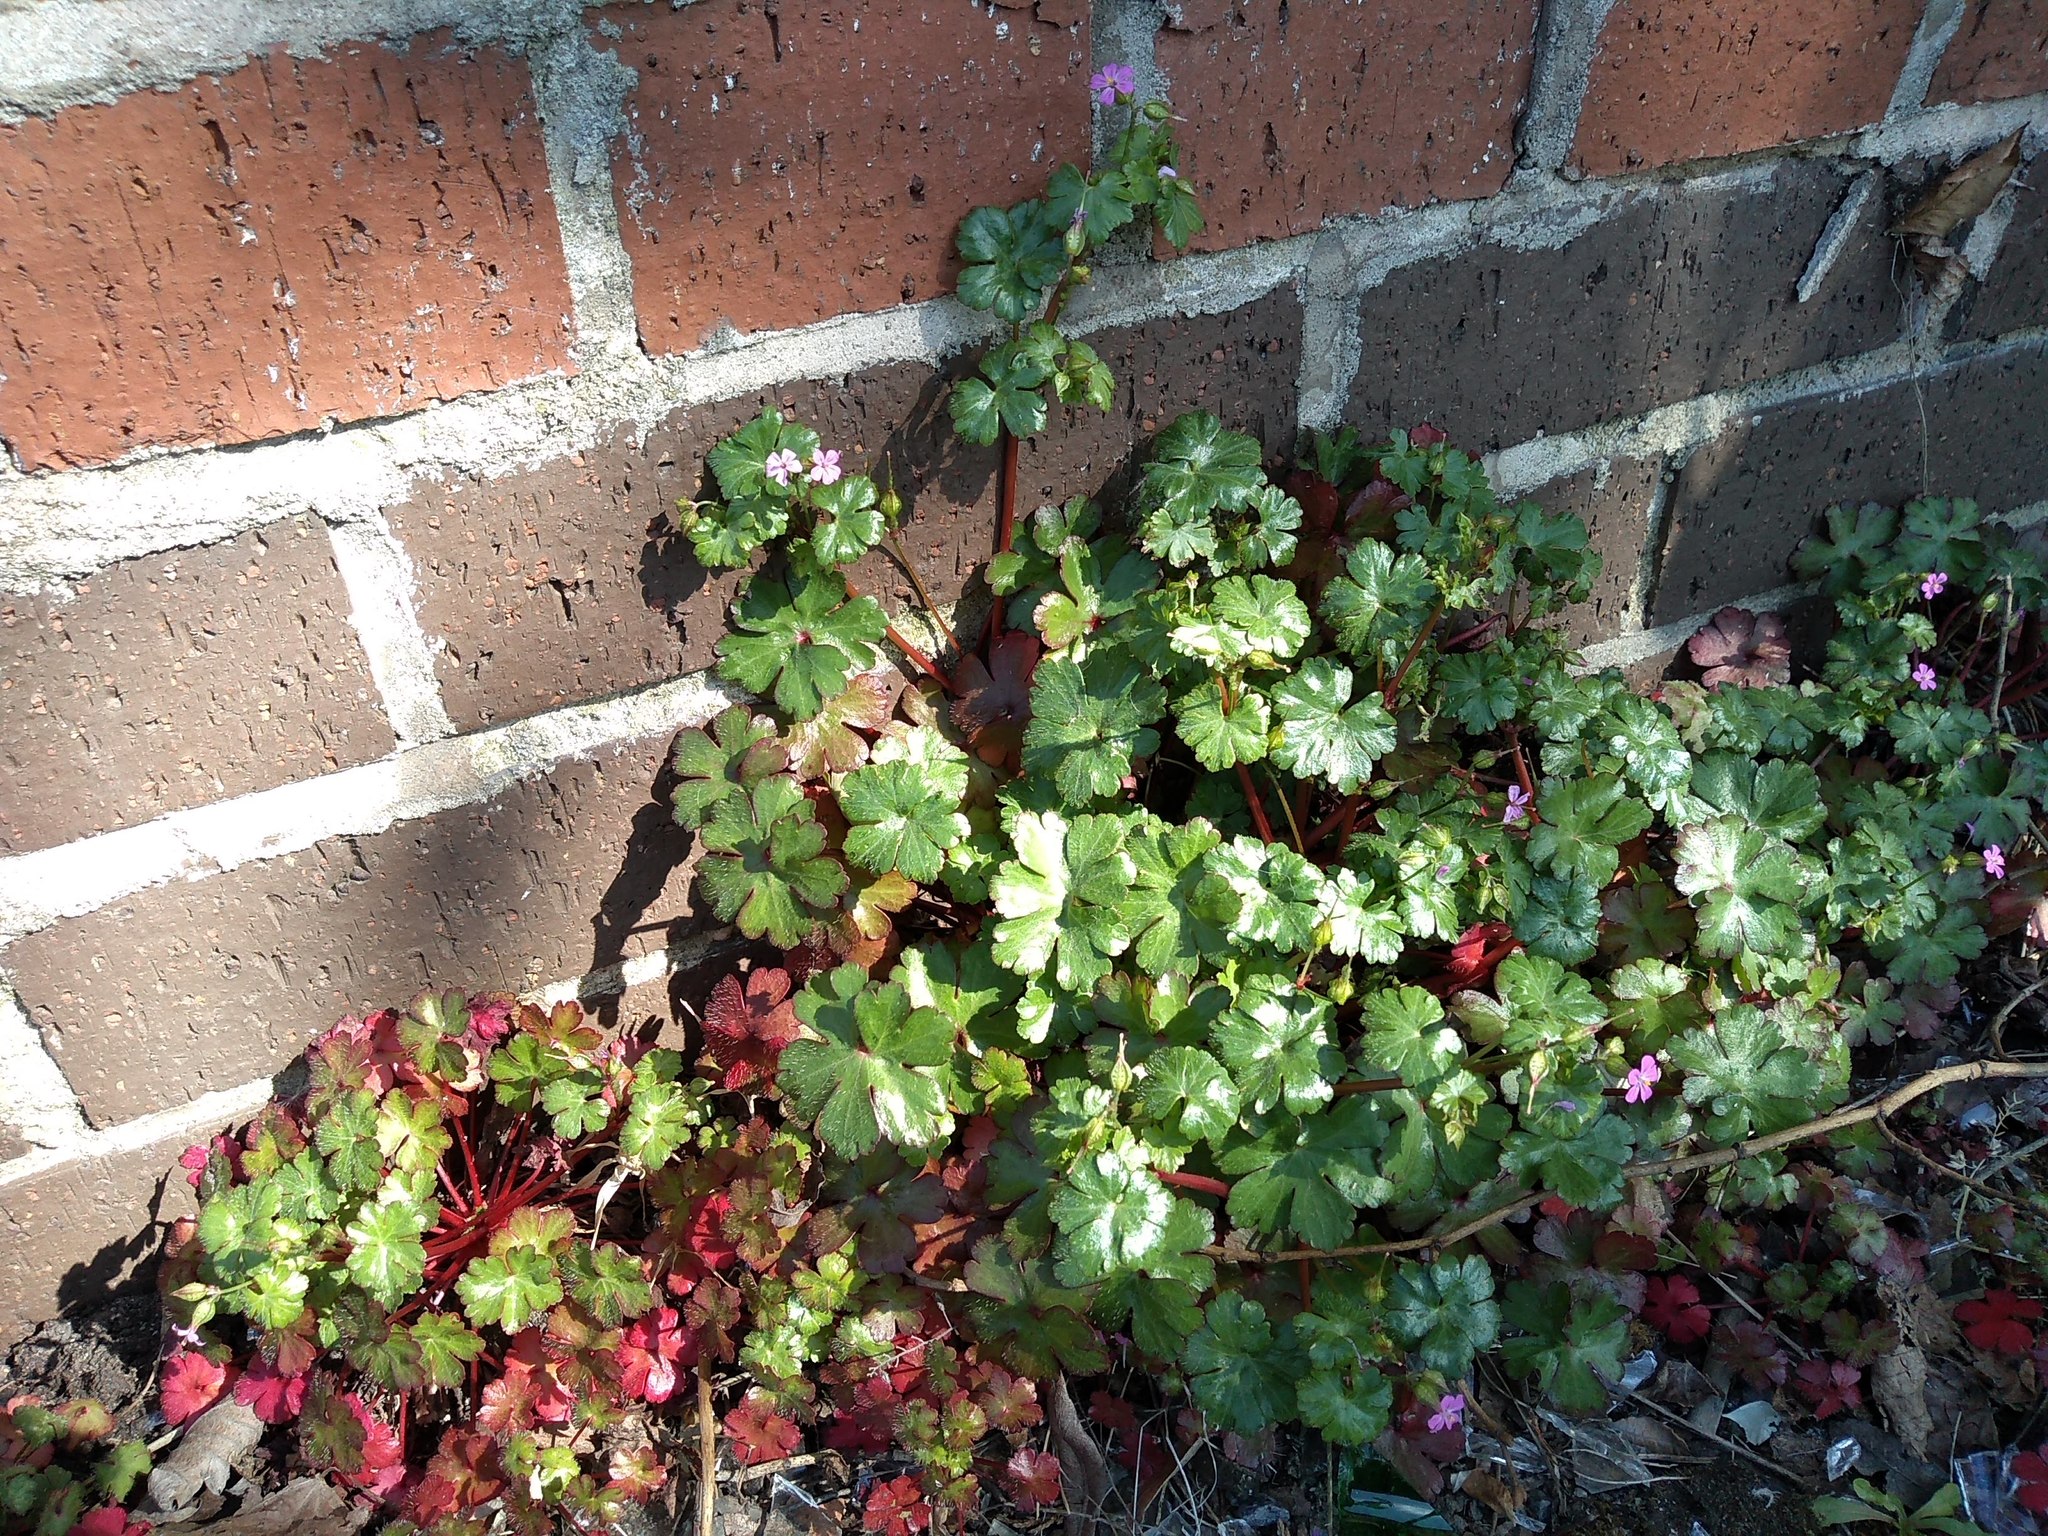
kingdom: Plantae
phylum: Tracheophyta
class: Magnoliopsida
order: Geraniales
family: Geraniaceae
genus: Geranium
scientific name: Geranium lucidum
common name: Shining crane's-bill
